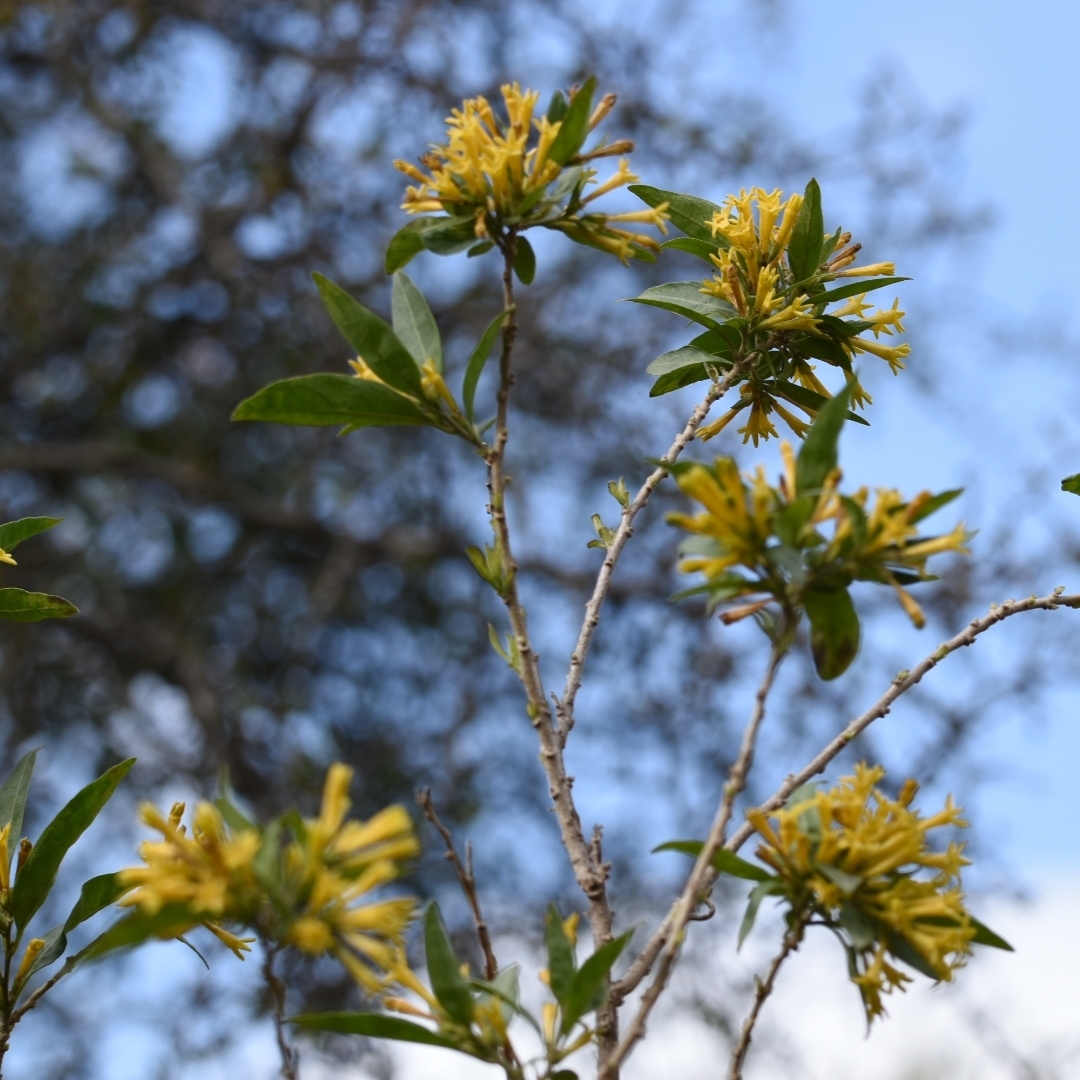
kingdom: Plantae
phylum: Tracheophyta
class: Magnoliopsida
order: Solanales
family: Solanaceae
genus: Cestrum
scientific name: Cestrum parqui
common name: Chilean cestrum
